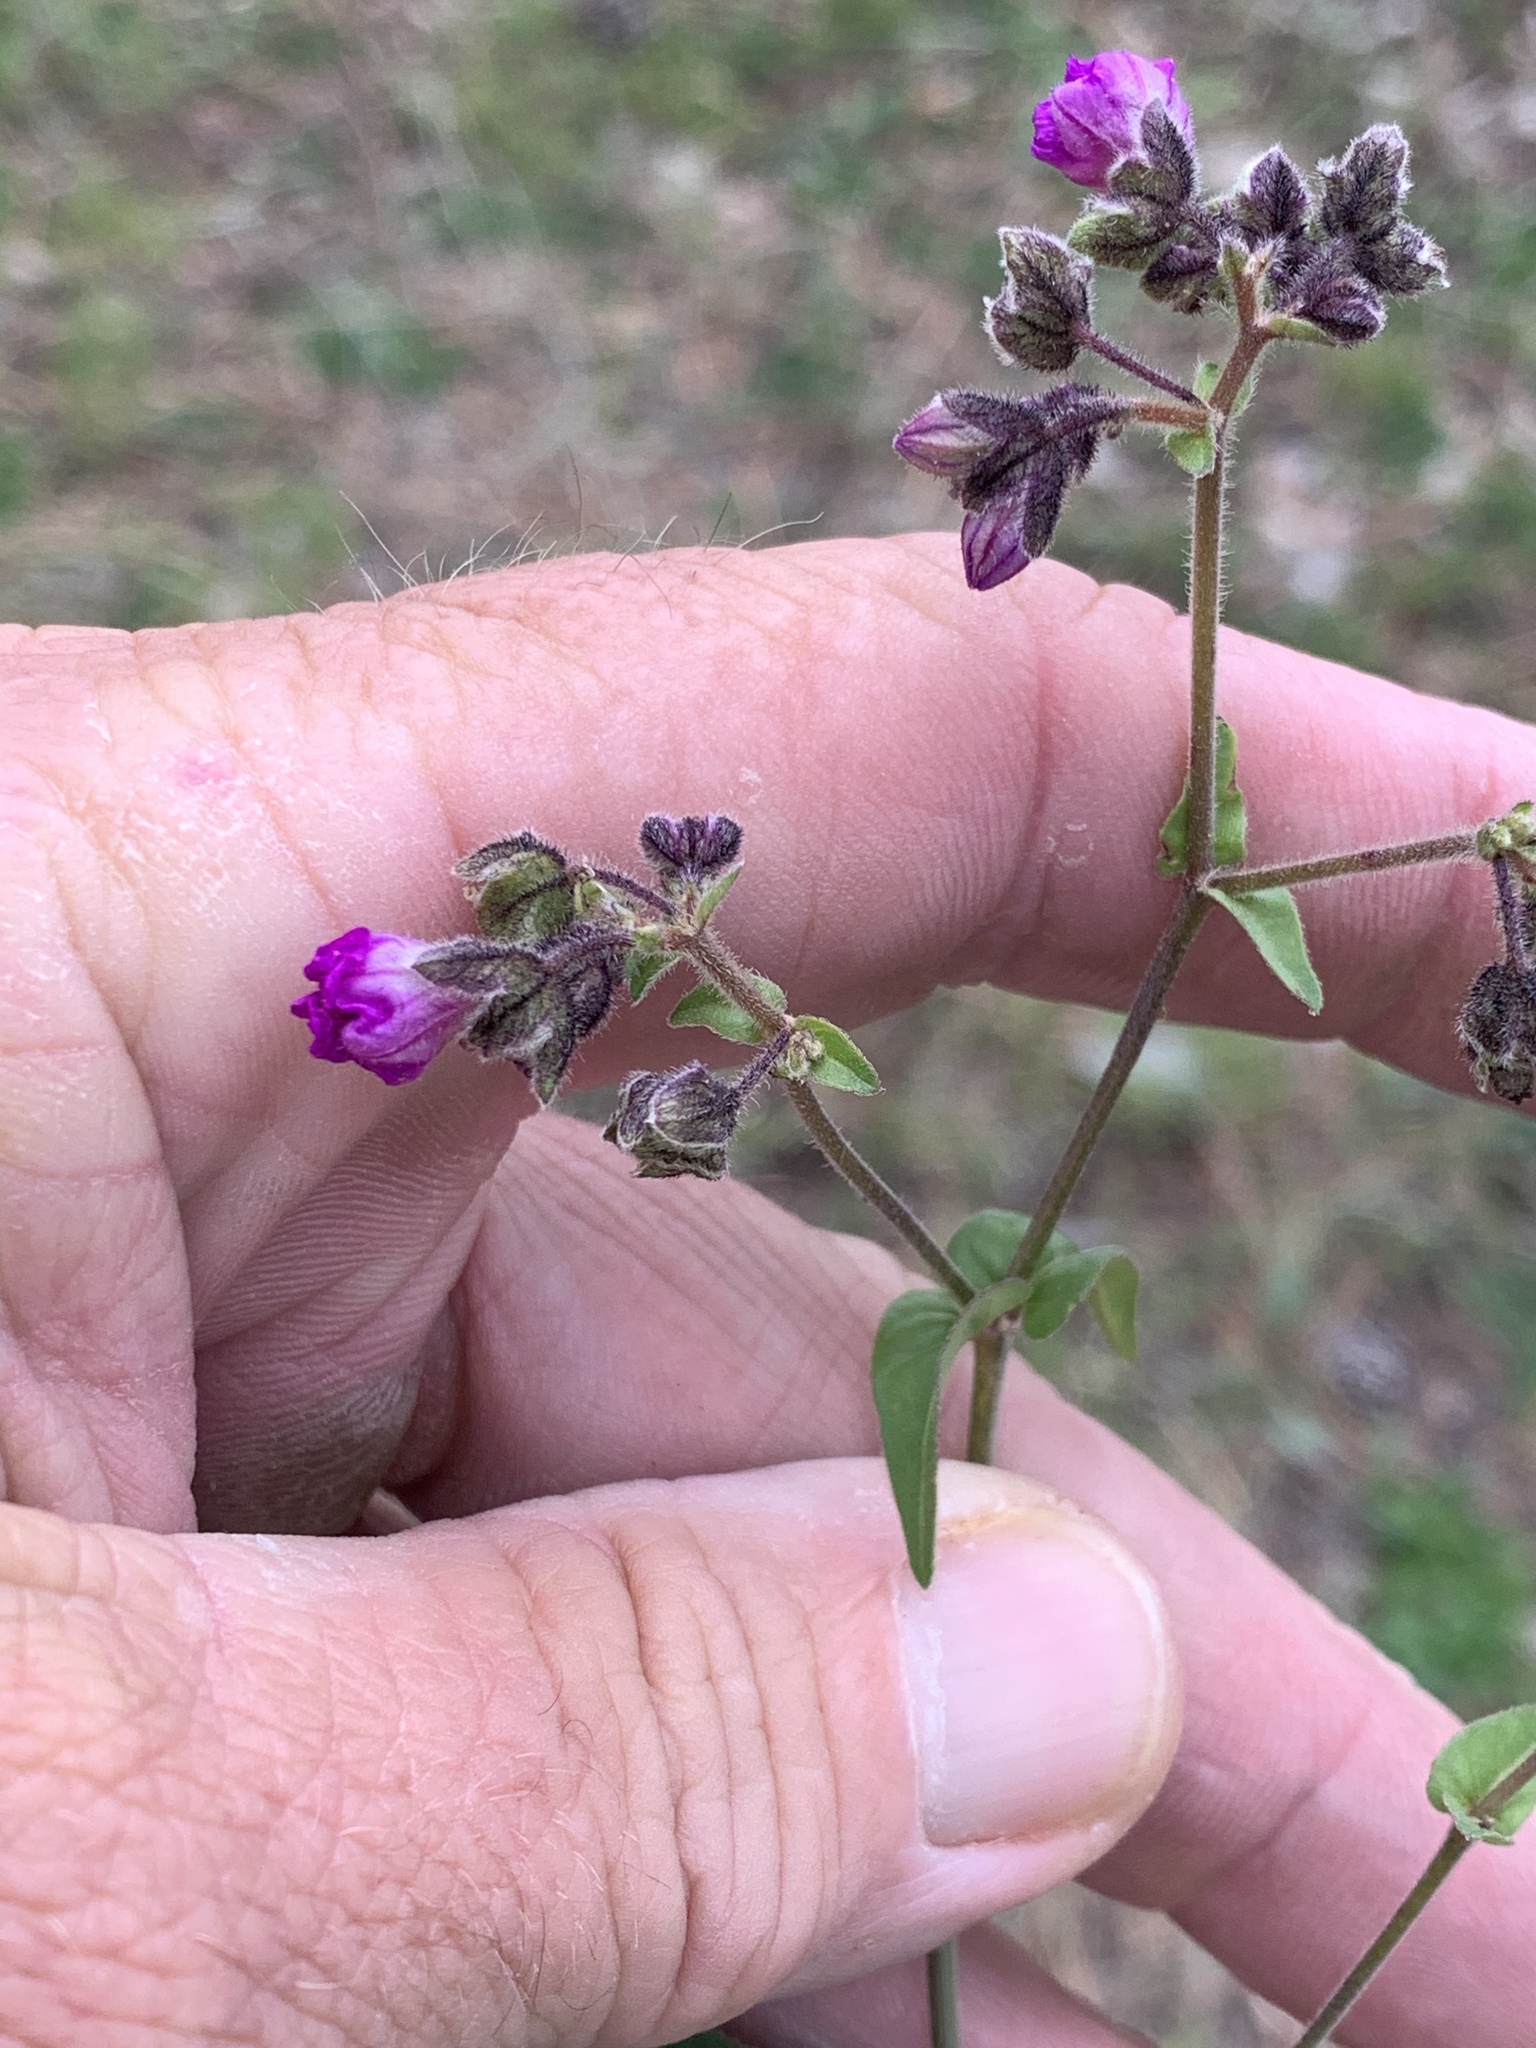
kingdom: Plantae
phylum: Tracheophyta
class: Magnoliopsida
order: Caryophyllales
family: Nyctaginaceae
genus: Mirabilis
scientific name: Mirabilis melanotricha
